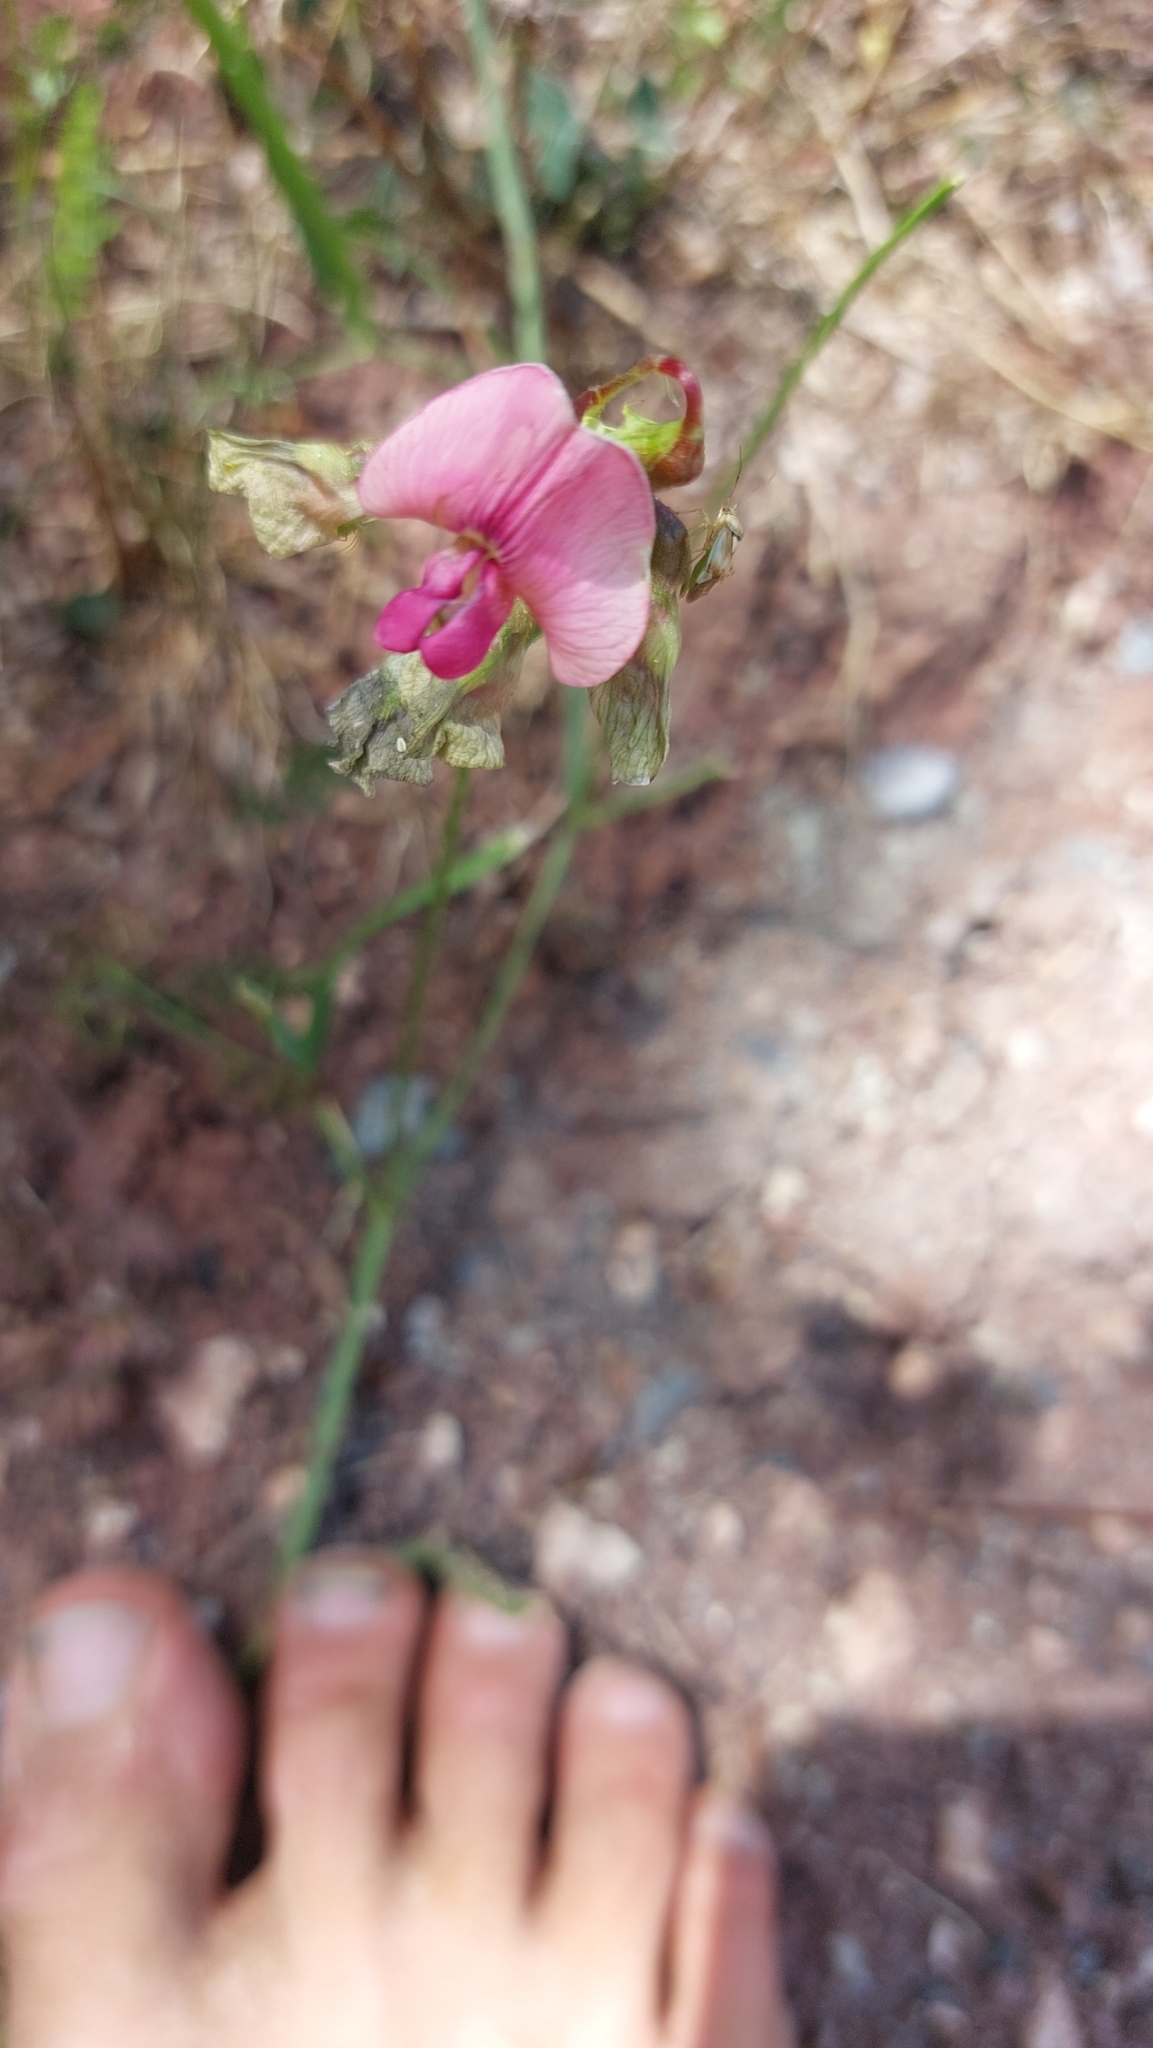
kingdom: Plantae
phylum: Tracheophyta
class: Magnoliopsida
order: Fabales
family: Fabaceae
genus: Lathyrus
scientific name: Lathyrus sylvestris
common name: Flat pea
